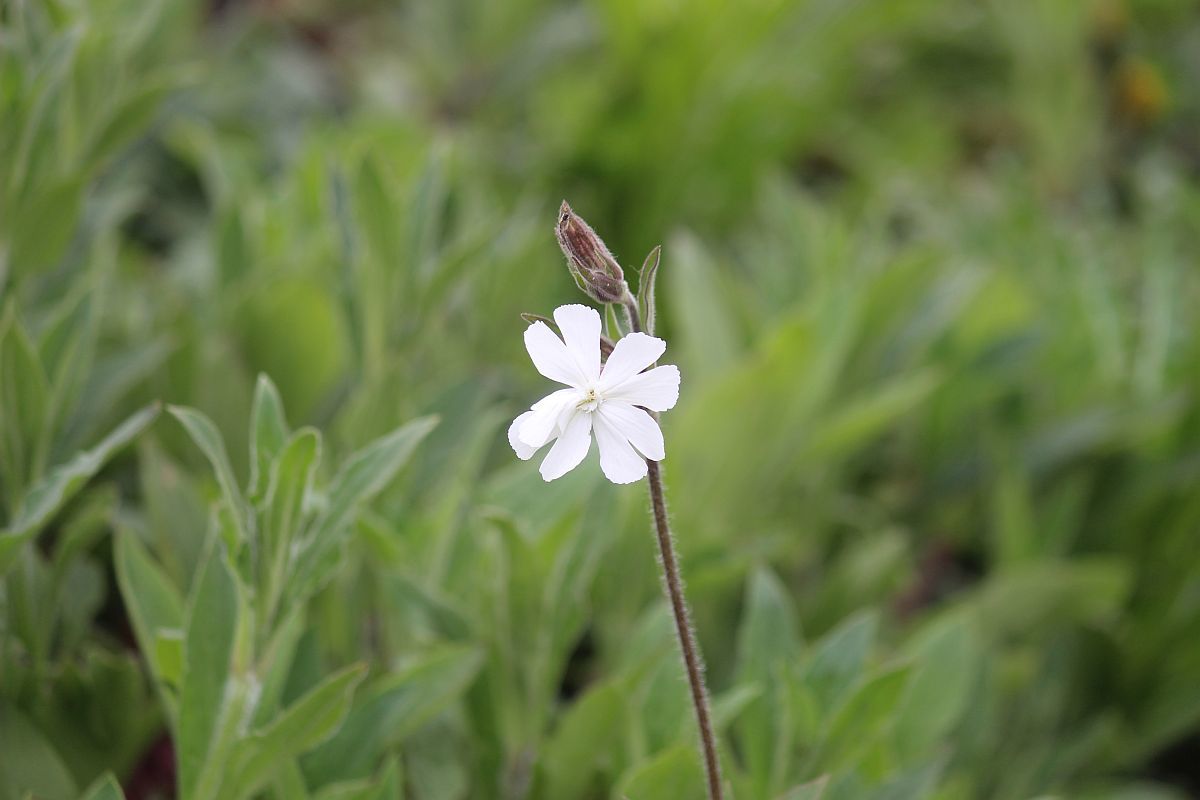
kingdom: Plantae
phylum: Tracheophyta
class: Magnoliopsida
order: Caryophyllales
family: Caryophyllaceae
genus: Silene
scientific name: Silene latifolia
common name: White campion
